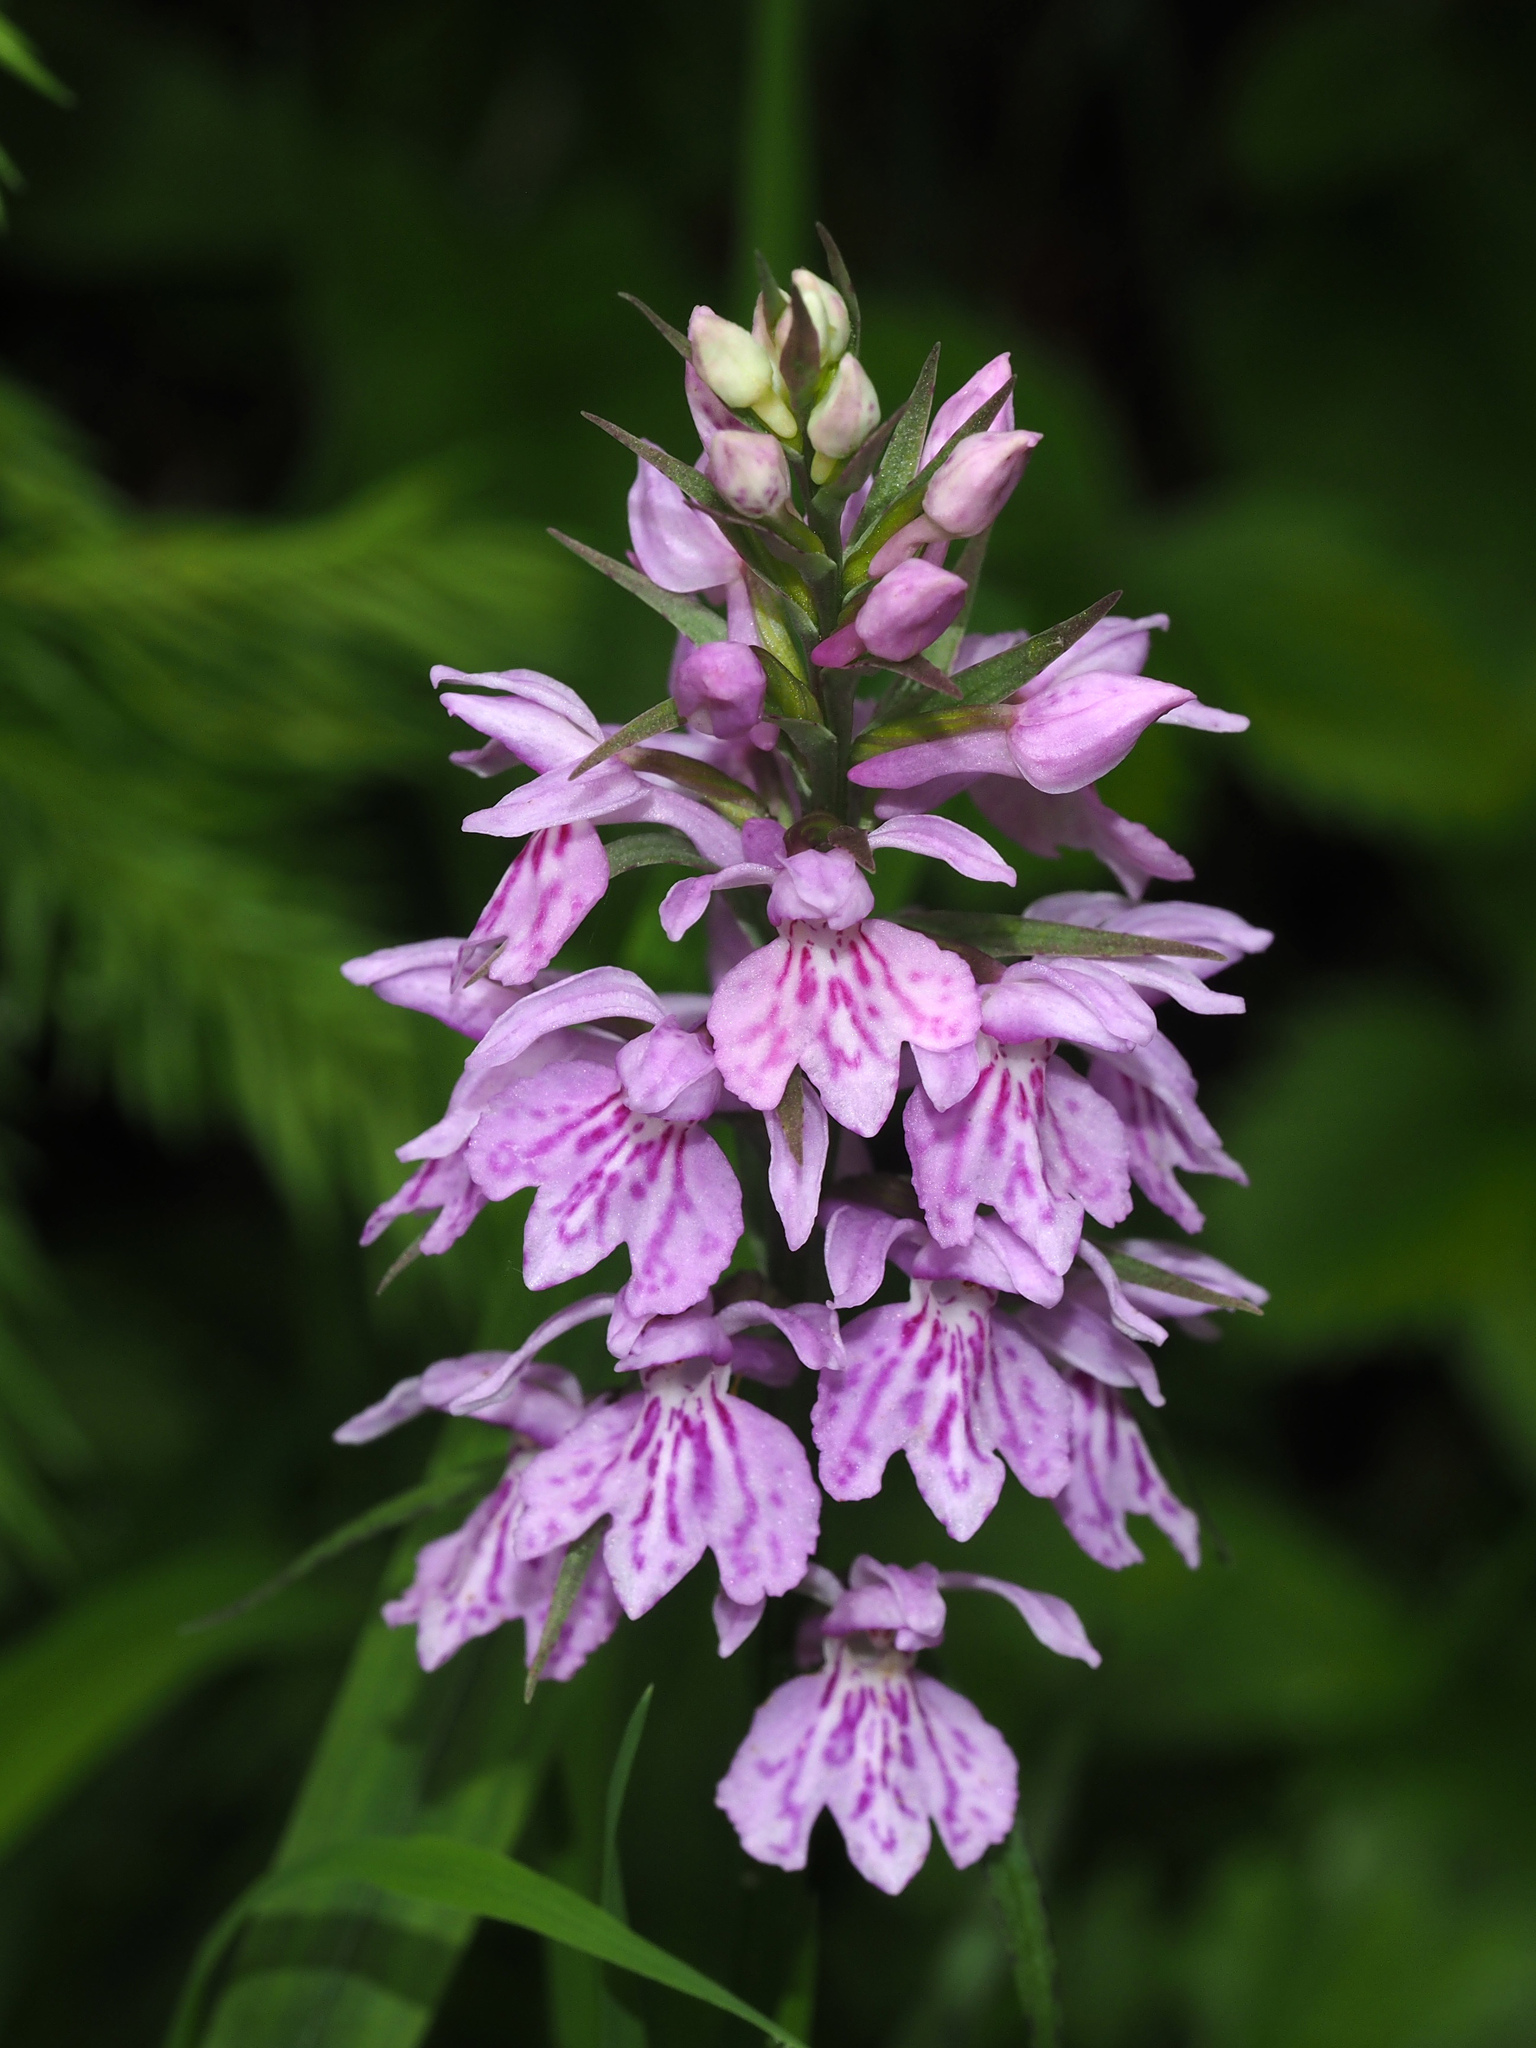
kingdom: Plantae
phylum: Tracheophyta
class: Liliopsida
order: Asparagales
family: Orchidaceae
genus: Dactylorhiza
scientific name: Dactylorhiza maculata
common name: Heath spotted-orchid
